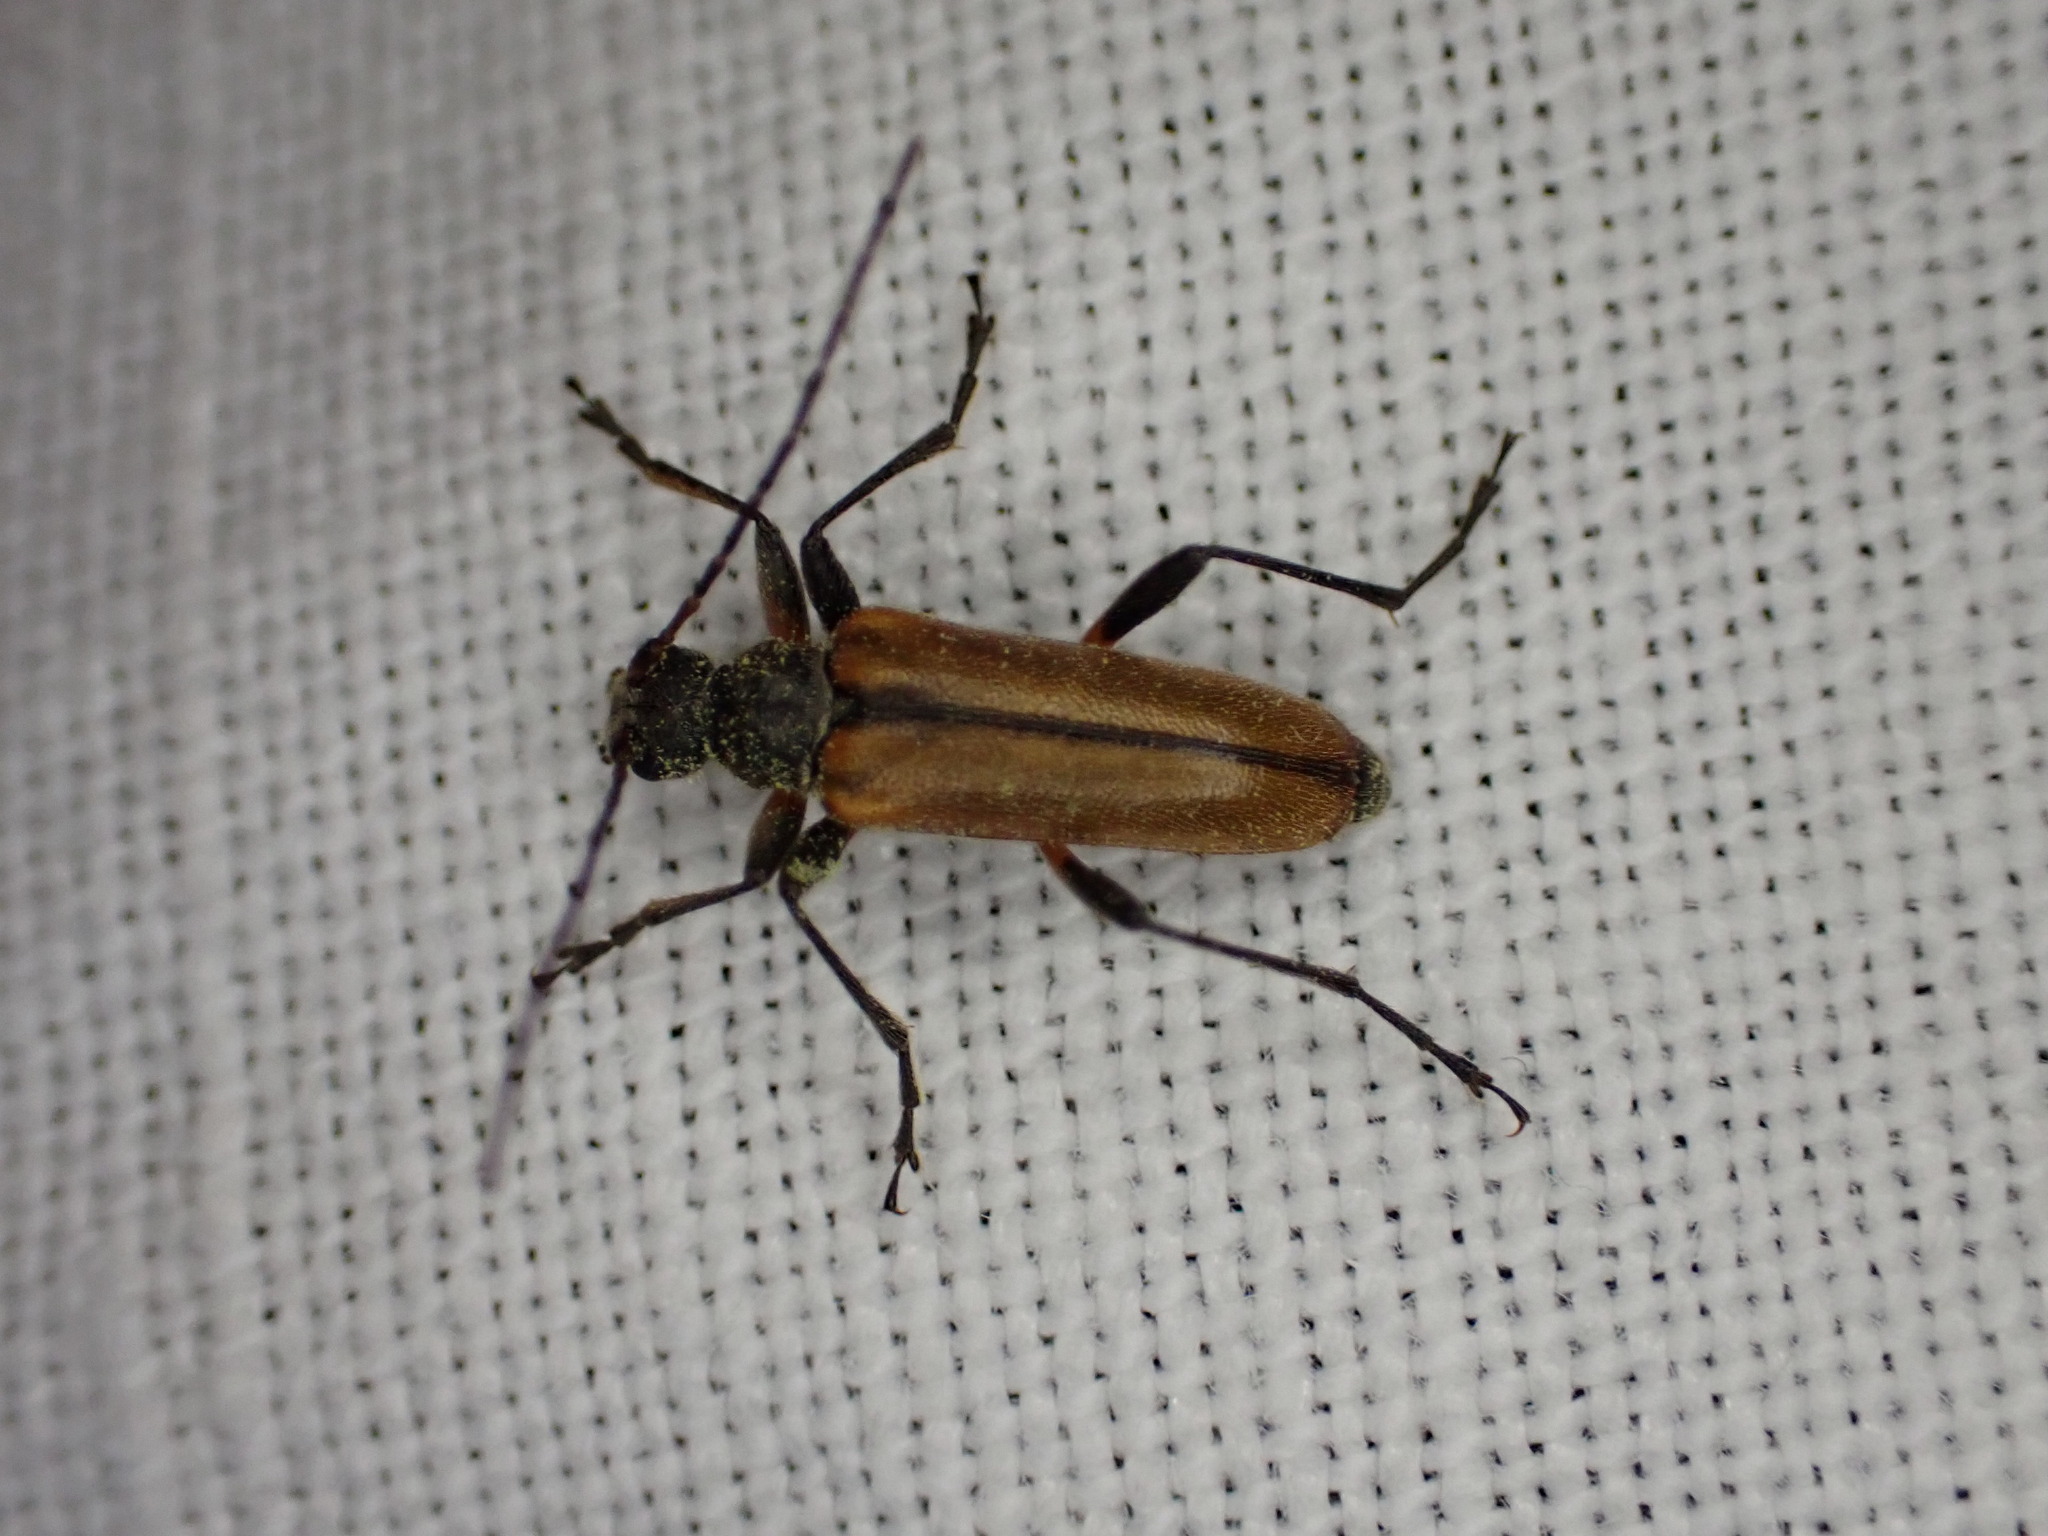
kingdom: Animalia
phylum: Arthropoda
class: Insecta
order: Coleoptera
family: Cerambycidae
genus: Cortodera
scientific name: Cortodera humeralis
